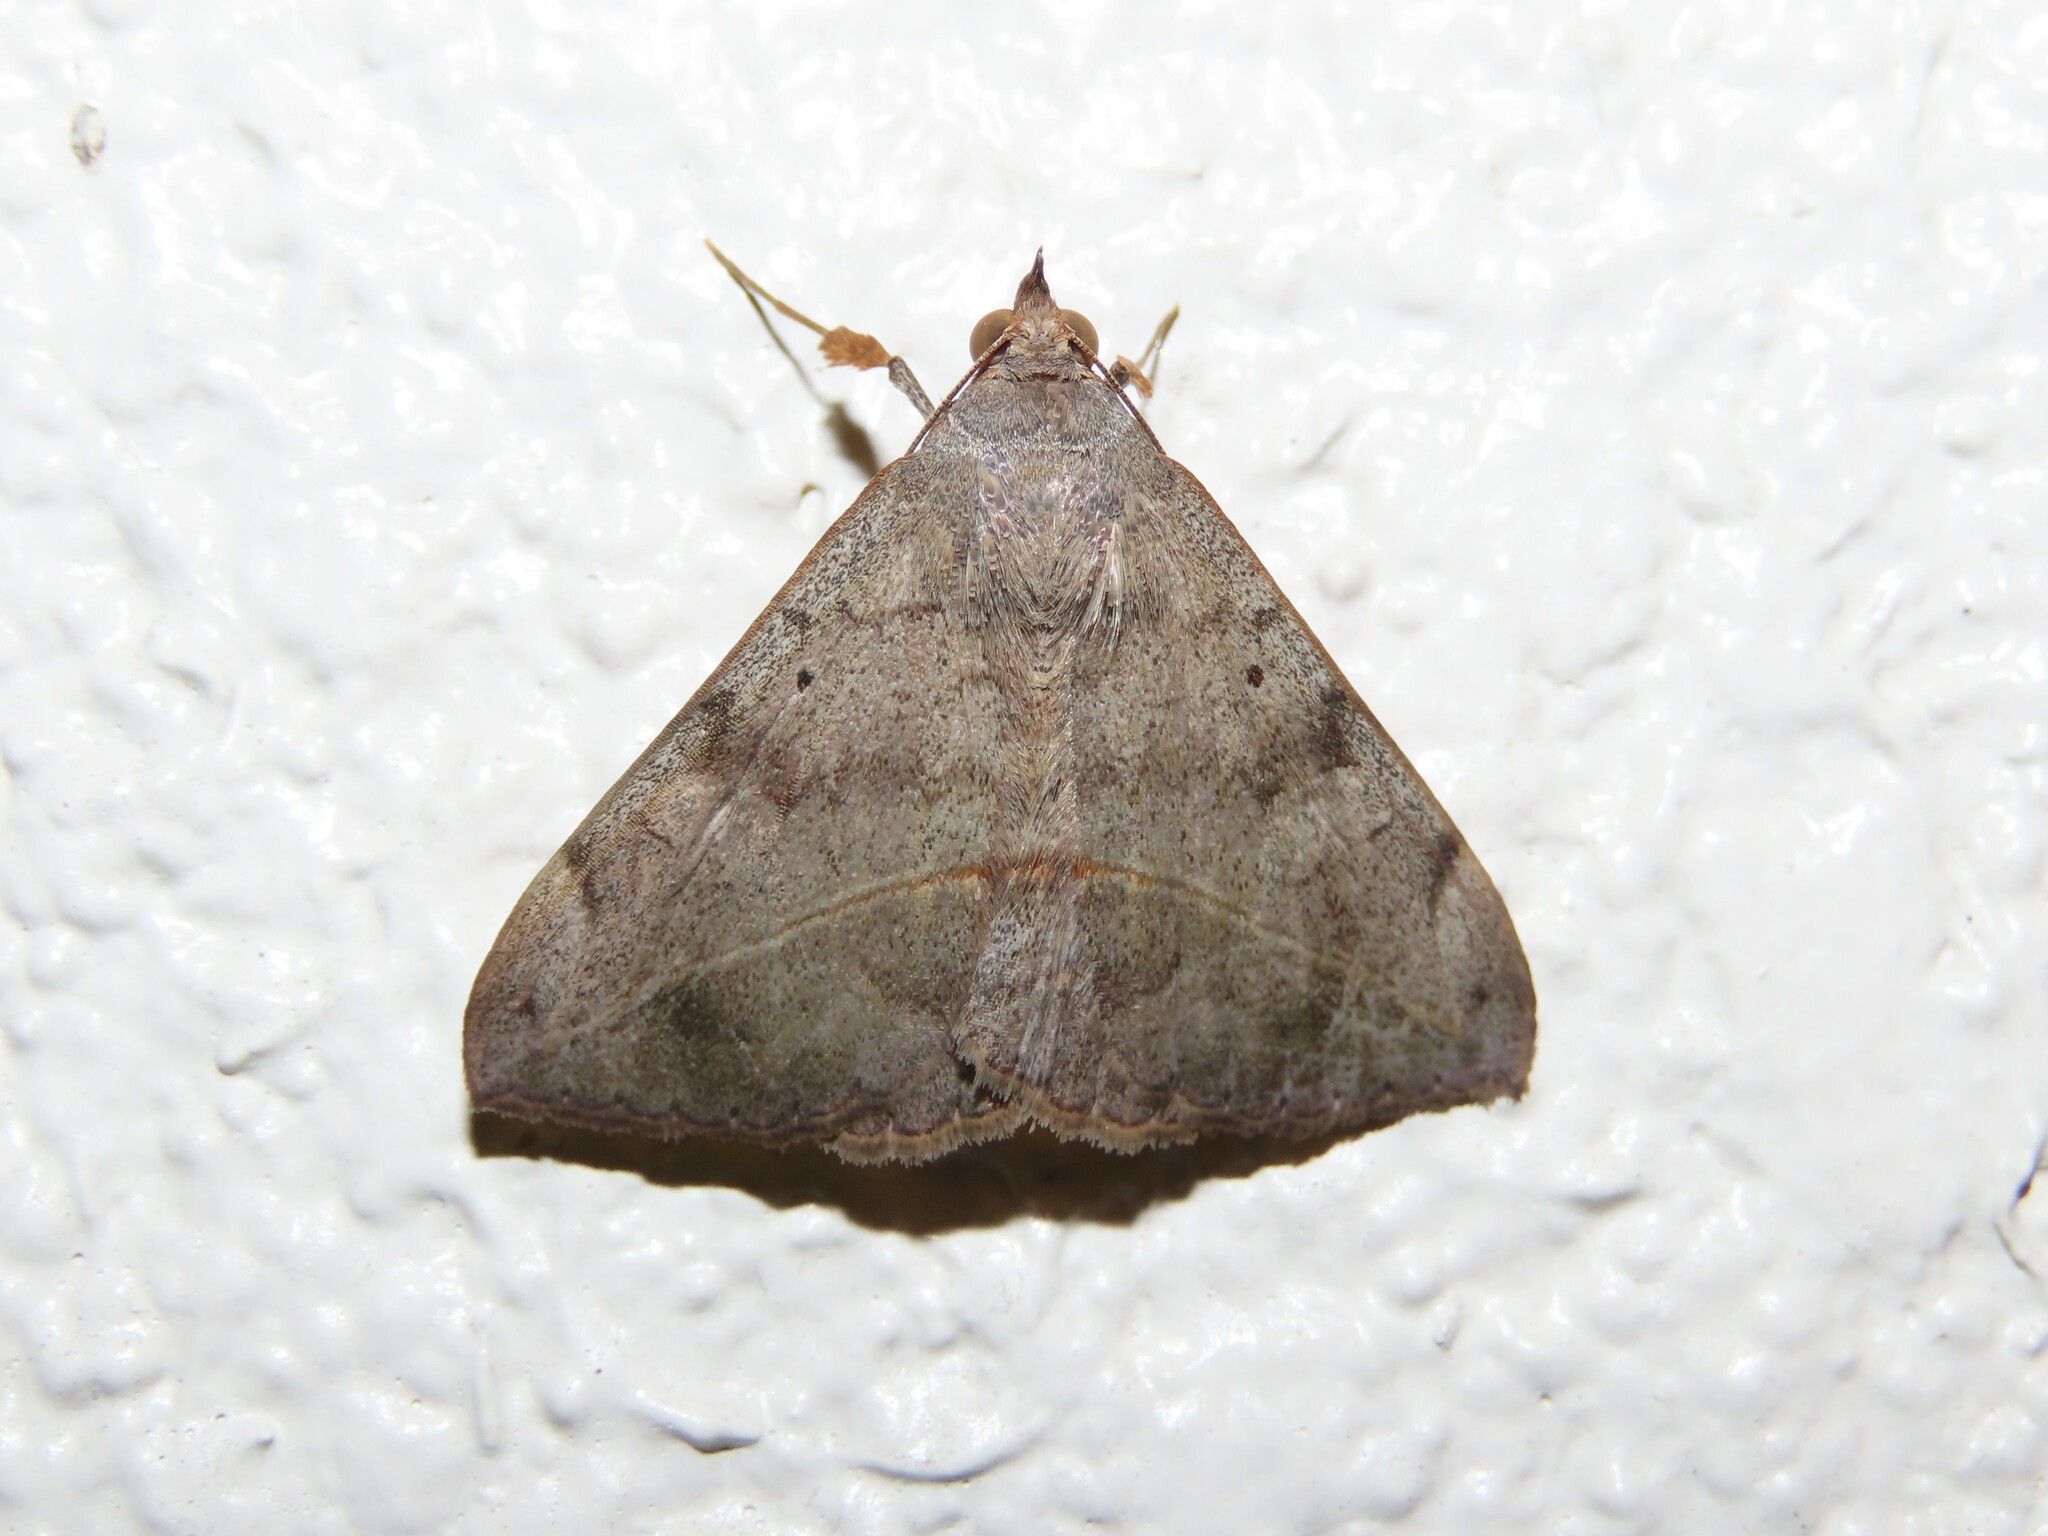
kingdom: Animalia
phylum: Arthropoda
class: Insecta
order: Lepidoptera
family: Erebidae
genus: Anticarsia
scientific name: Anticarsia gemmatalis
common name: Cutworm moth
